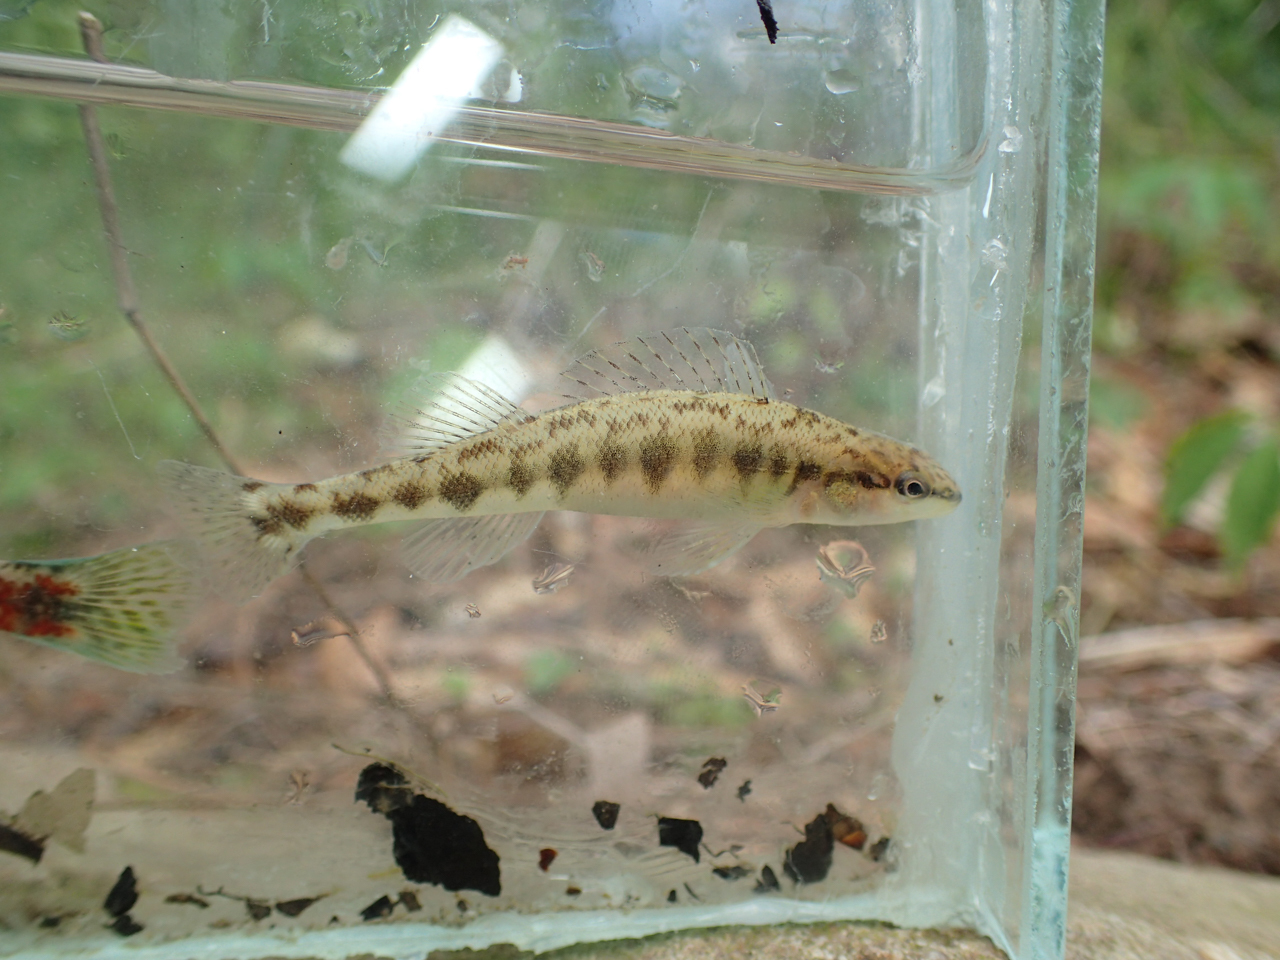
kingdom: Animalia
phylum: Chordata
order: Perciformes
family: Percidae
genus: Percina
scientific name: Percina nigrofasciata
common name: Blackbanded darter
